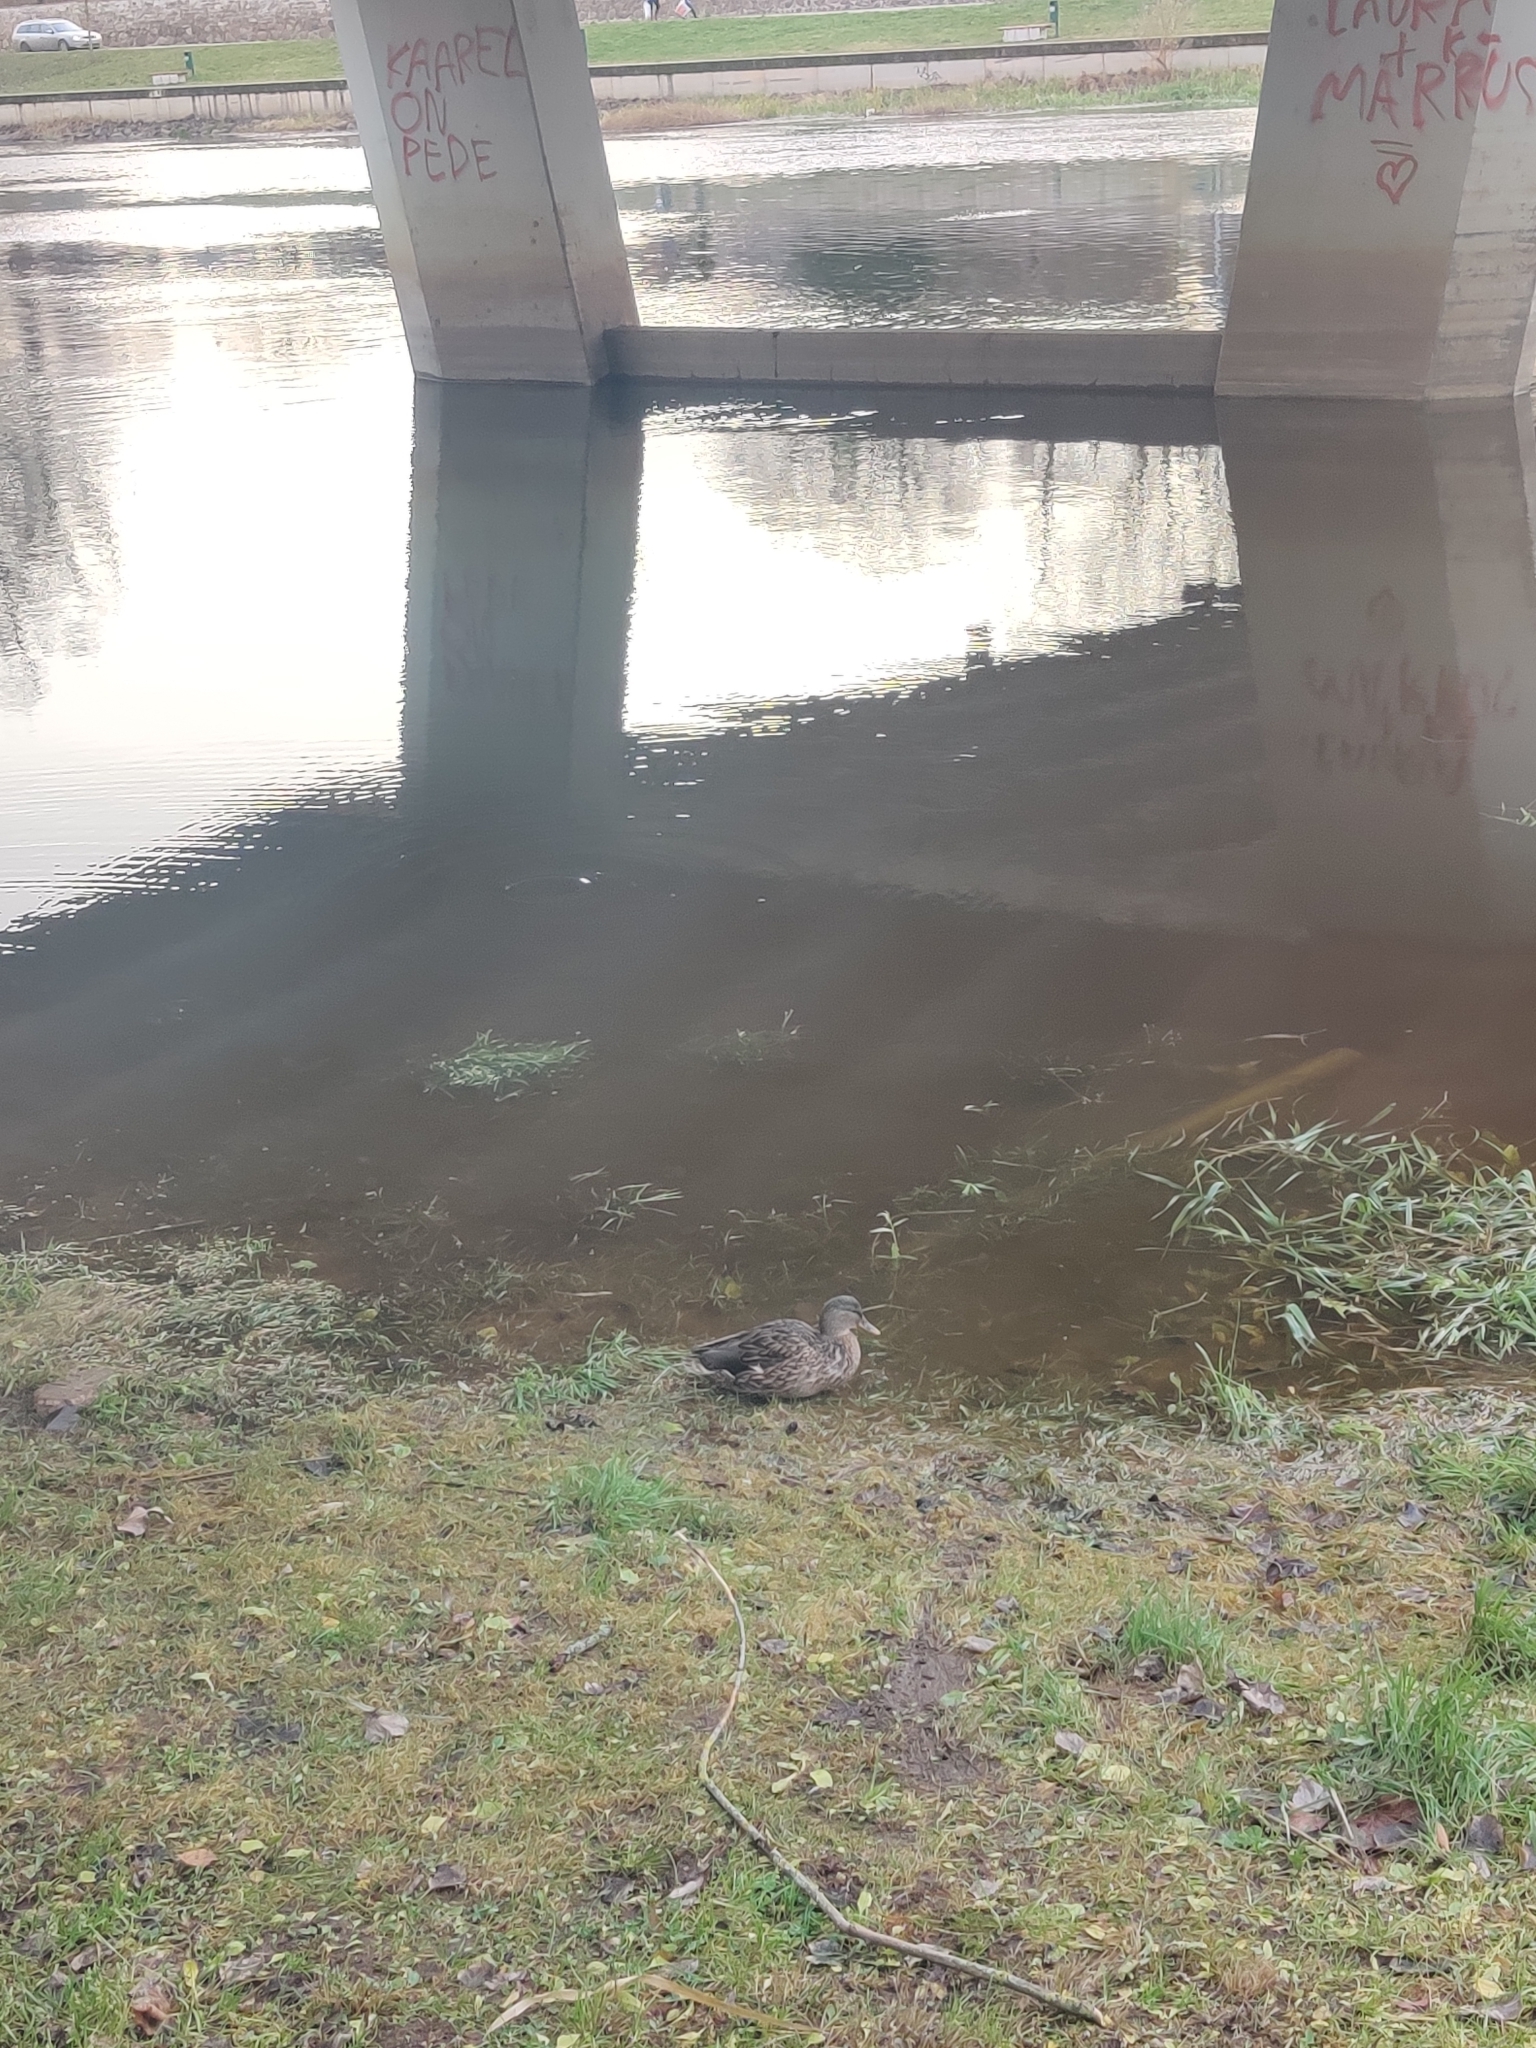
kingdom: Animalia
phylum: Chordata
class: Aves
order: Anseriformes
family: Anatidae
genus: Anas
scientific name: Anas platyrhynchos
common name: Mallard
